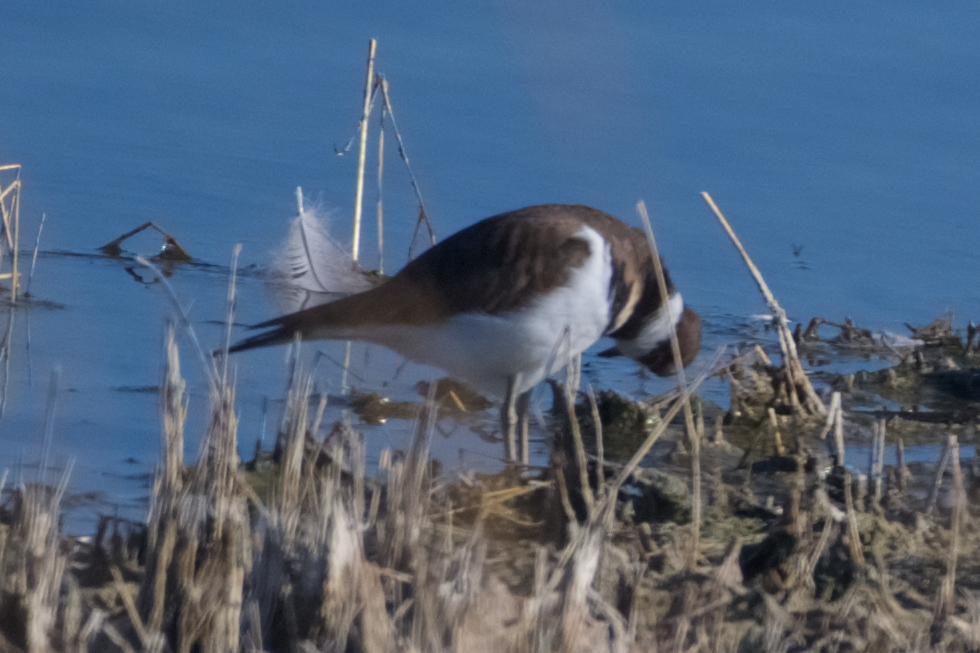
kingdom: Animalia
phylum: Chordata
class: Aves
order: Charadriiformes
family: Charadriidae
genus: Charadrius
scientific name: Charadrius vociferus
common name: Killdeer
